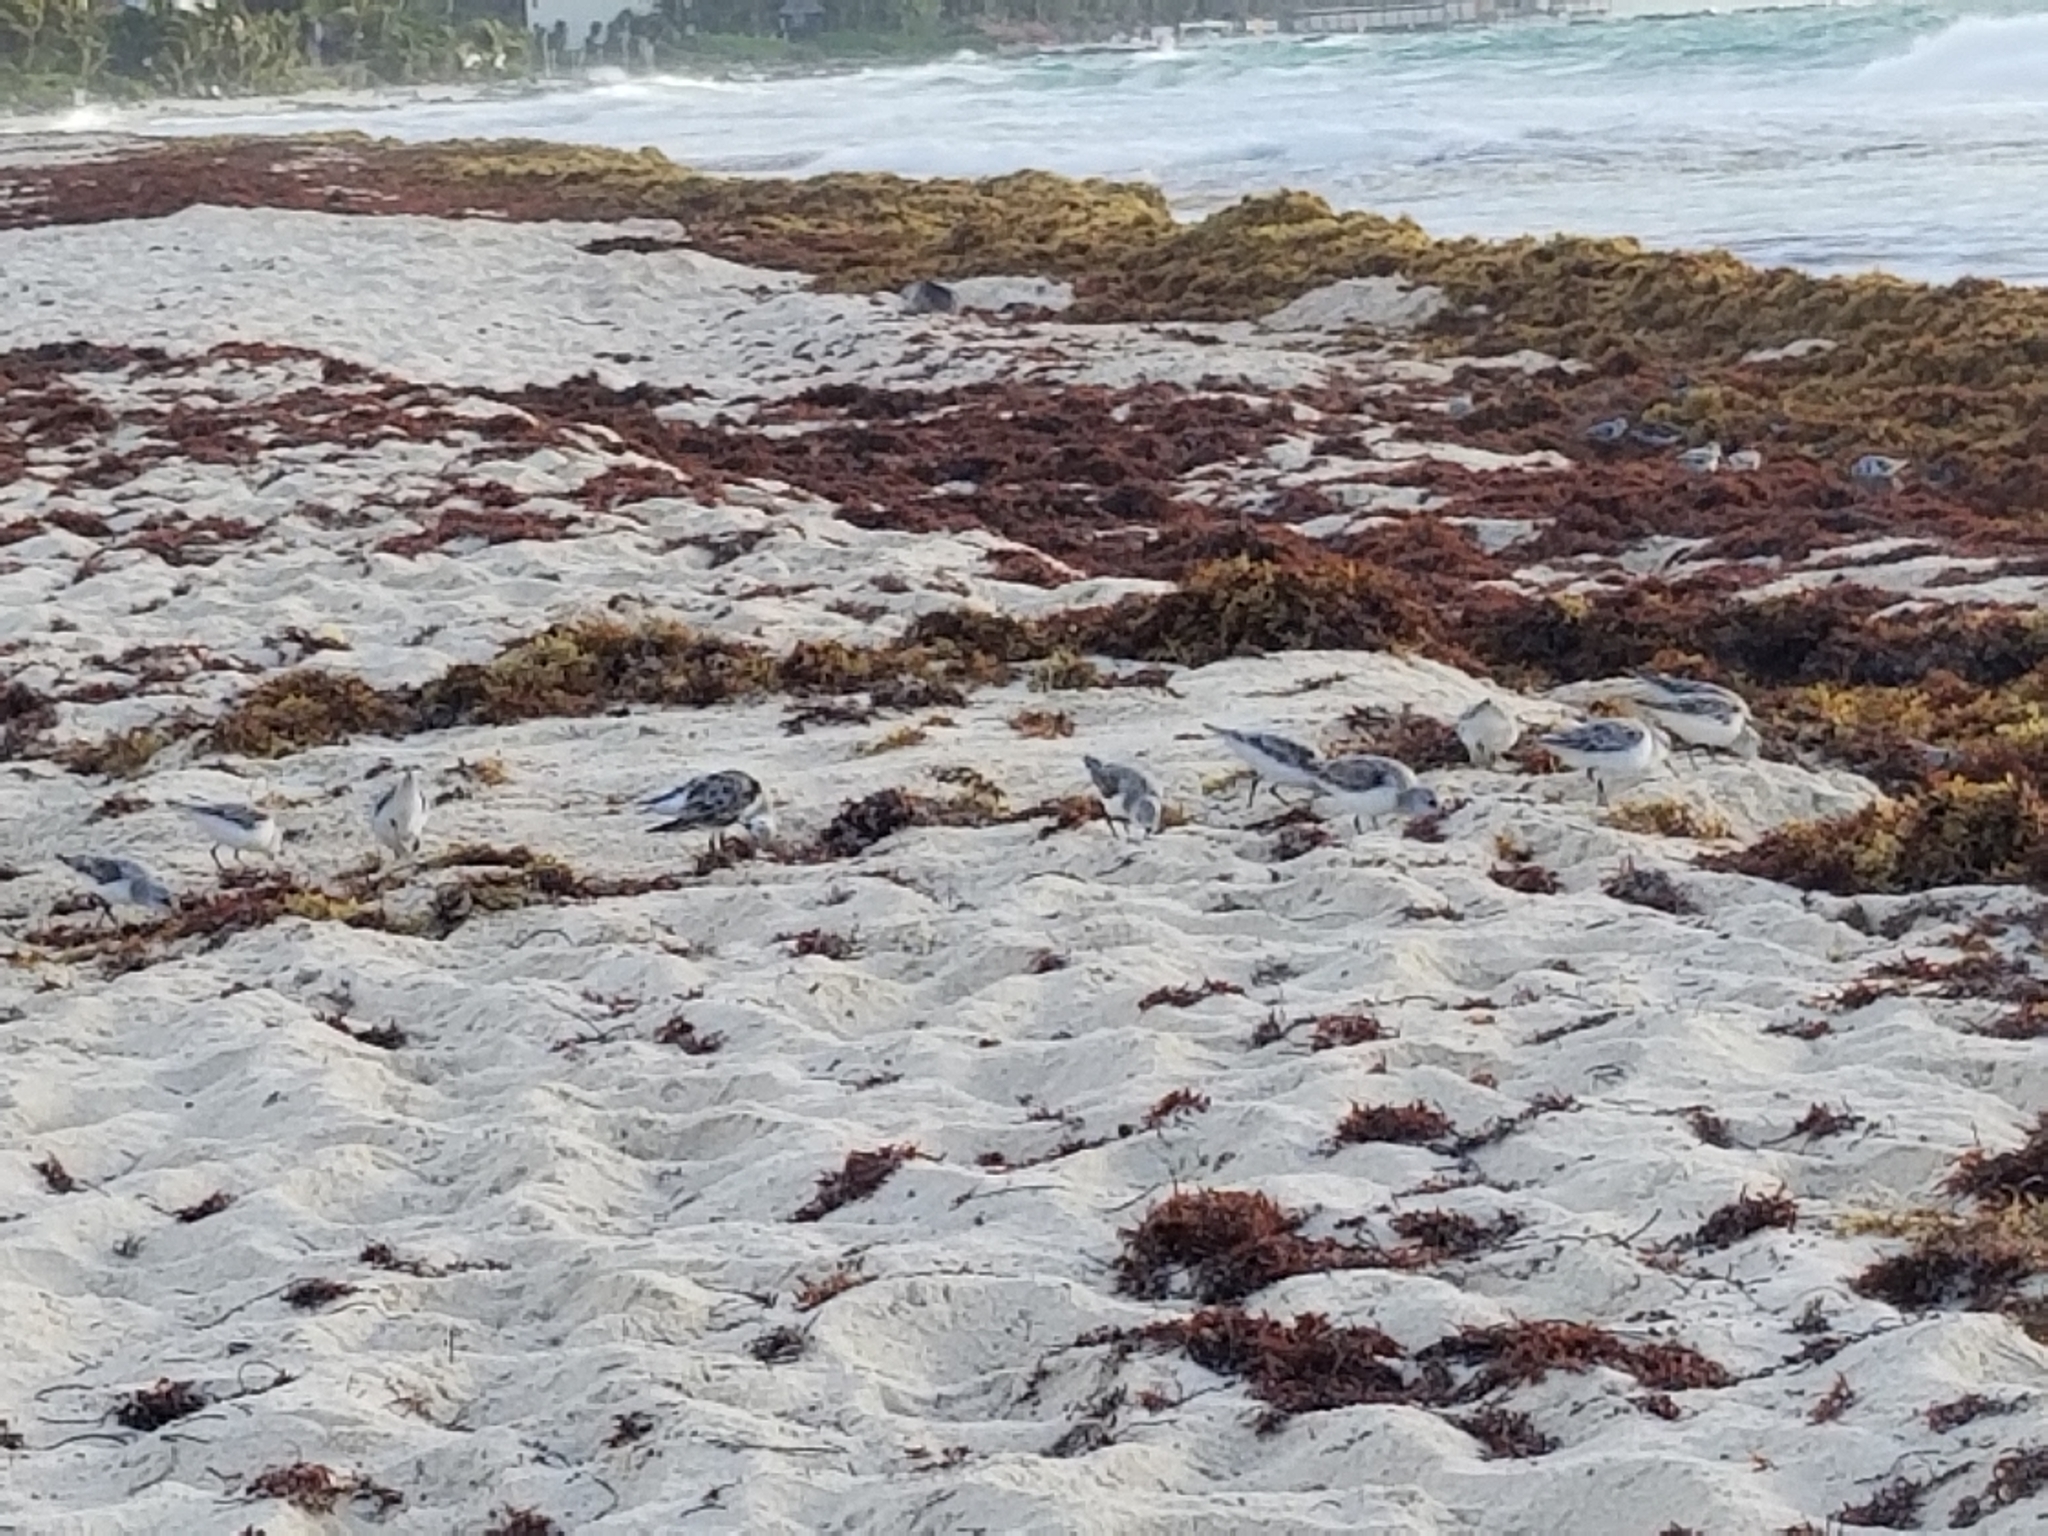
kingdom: Animalia
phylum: Chordata
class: Aves
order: Charadriiformes
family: Scolopacidae
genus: Calidris
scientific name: Calidris alba
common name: Sanderling
